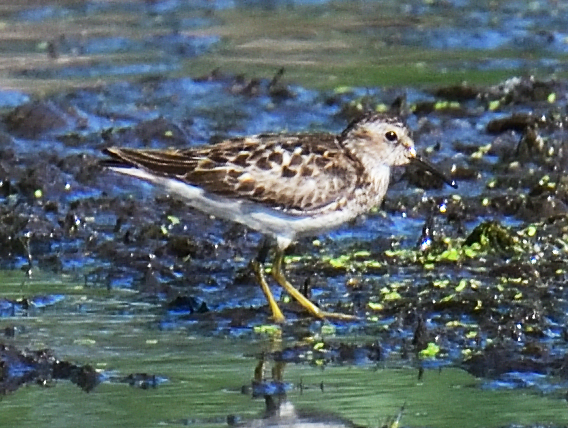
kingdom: Animalia
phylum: Chordata
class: Aves
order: Charadriiformes
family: Scolopacidae
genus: Calidris
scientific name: Calidris minutilla
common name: Least sandpiper
